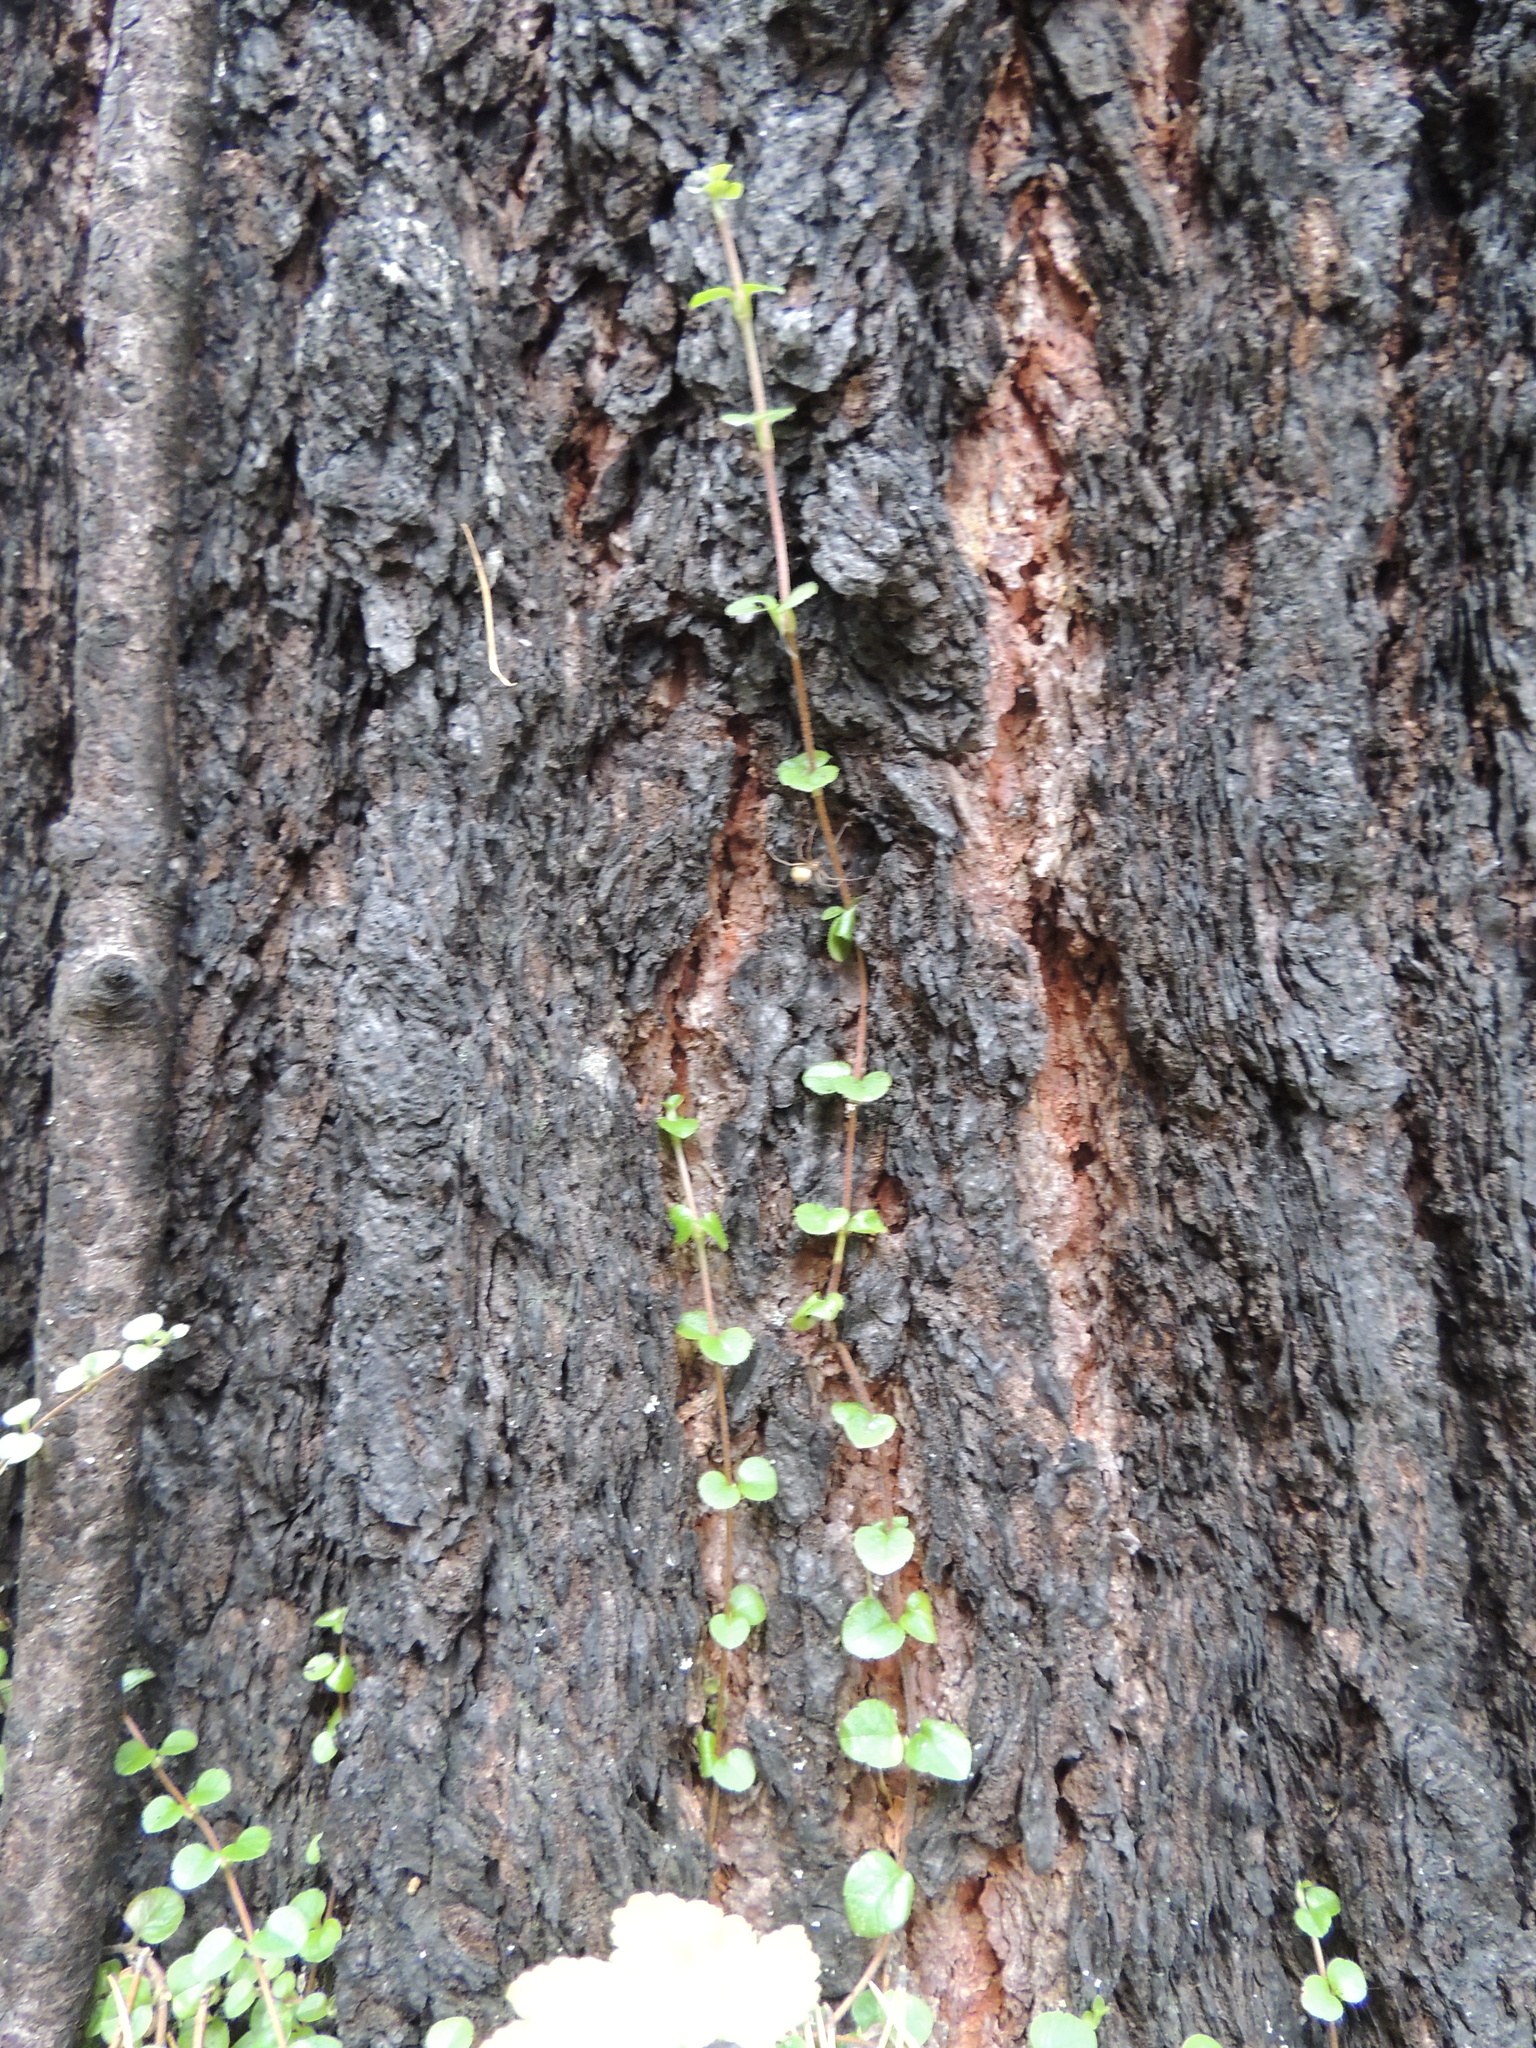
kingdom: Plantae
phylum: Tracheophyta
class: Magnoliopsida
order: Dipsacales
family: Caprifoliaceae
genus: Linnaea
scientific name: Linnaea borealis
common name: Twinflower
